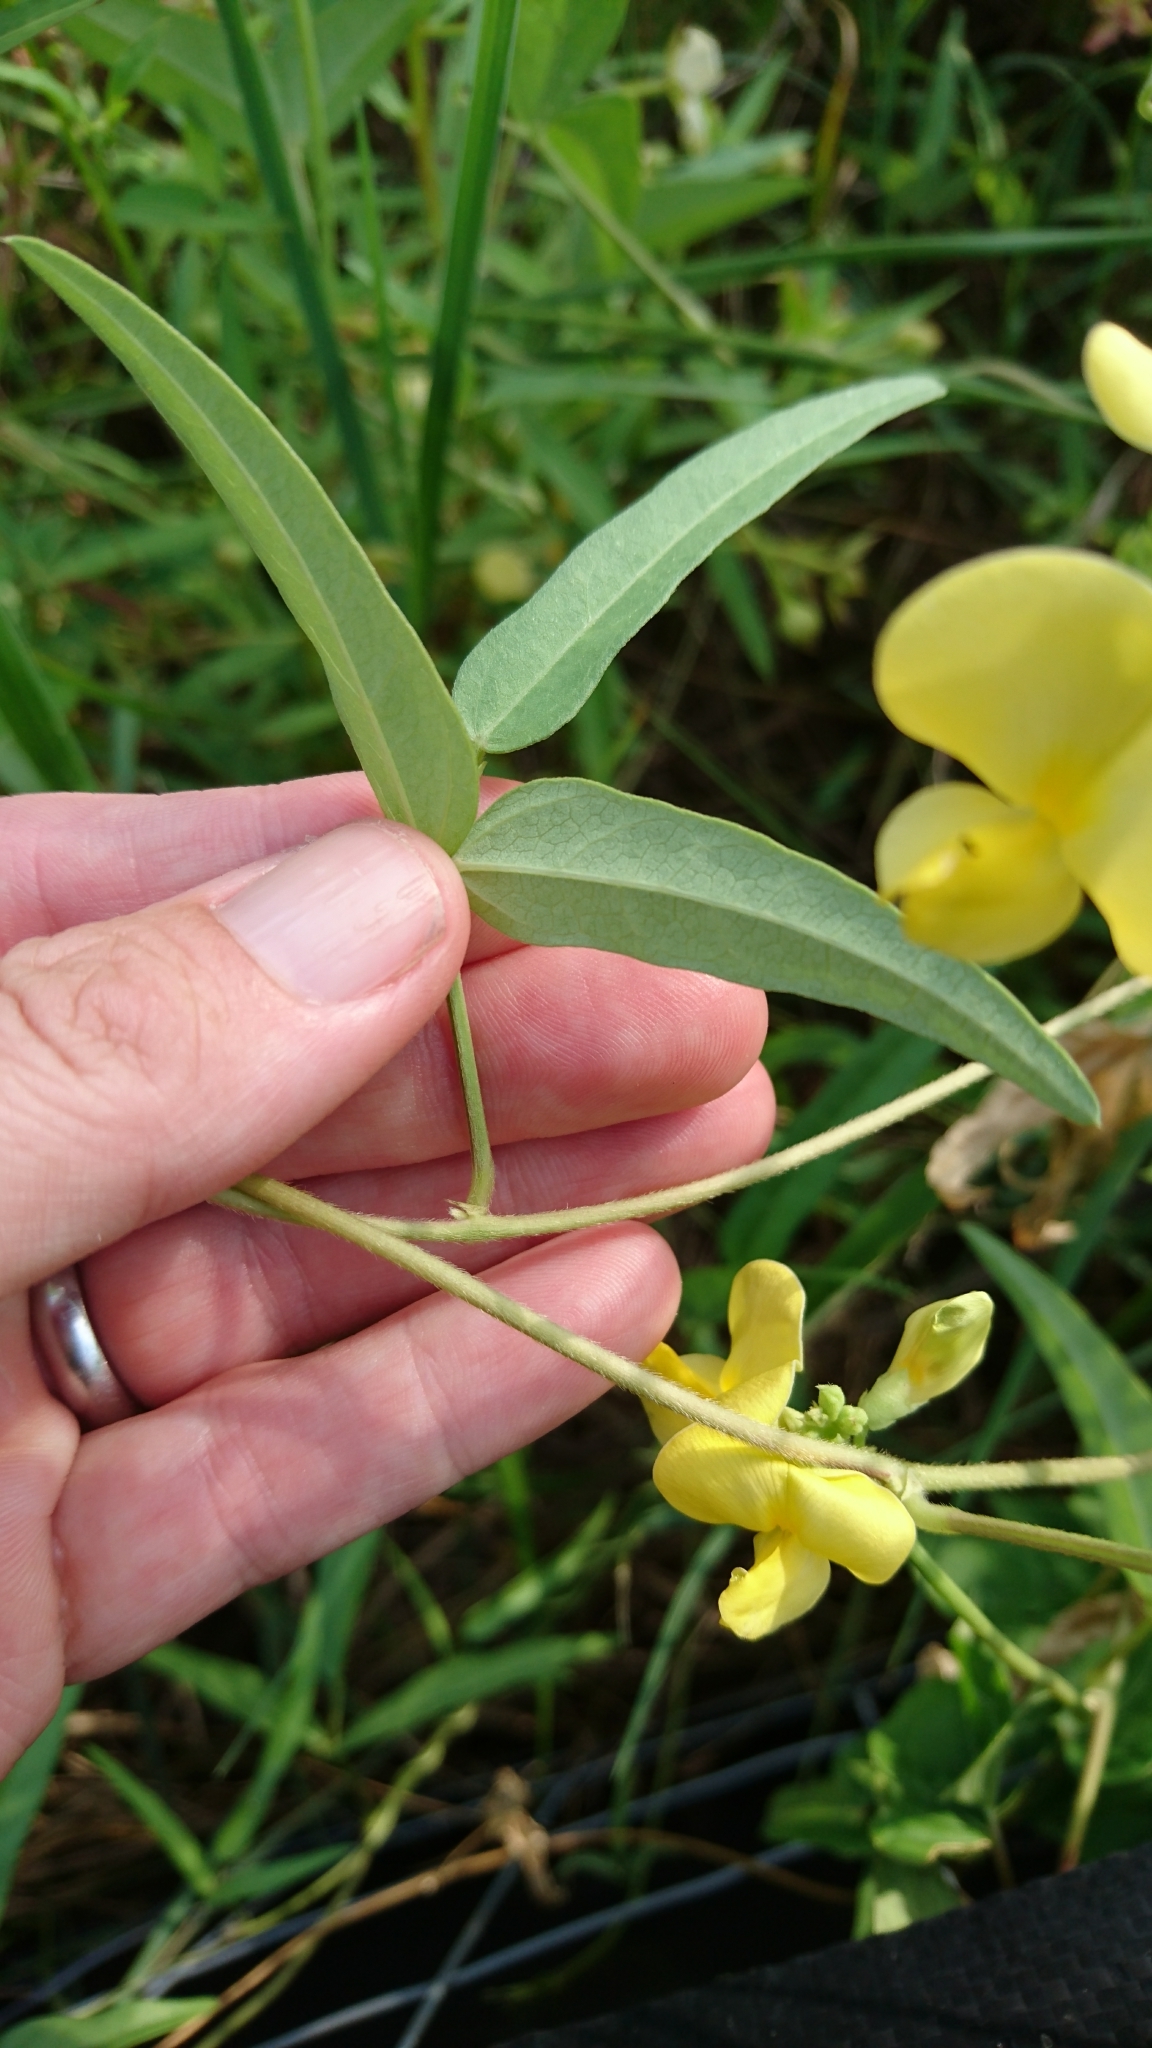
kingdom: Plantae
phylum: Tracheophyta
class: Magnoliopsida
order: Fabales
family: Fabaceae
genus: Vigna
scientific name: Vigna luteola
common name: Hairypod cowpea
